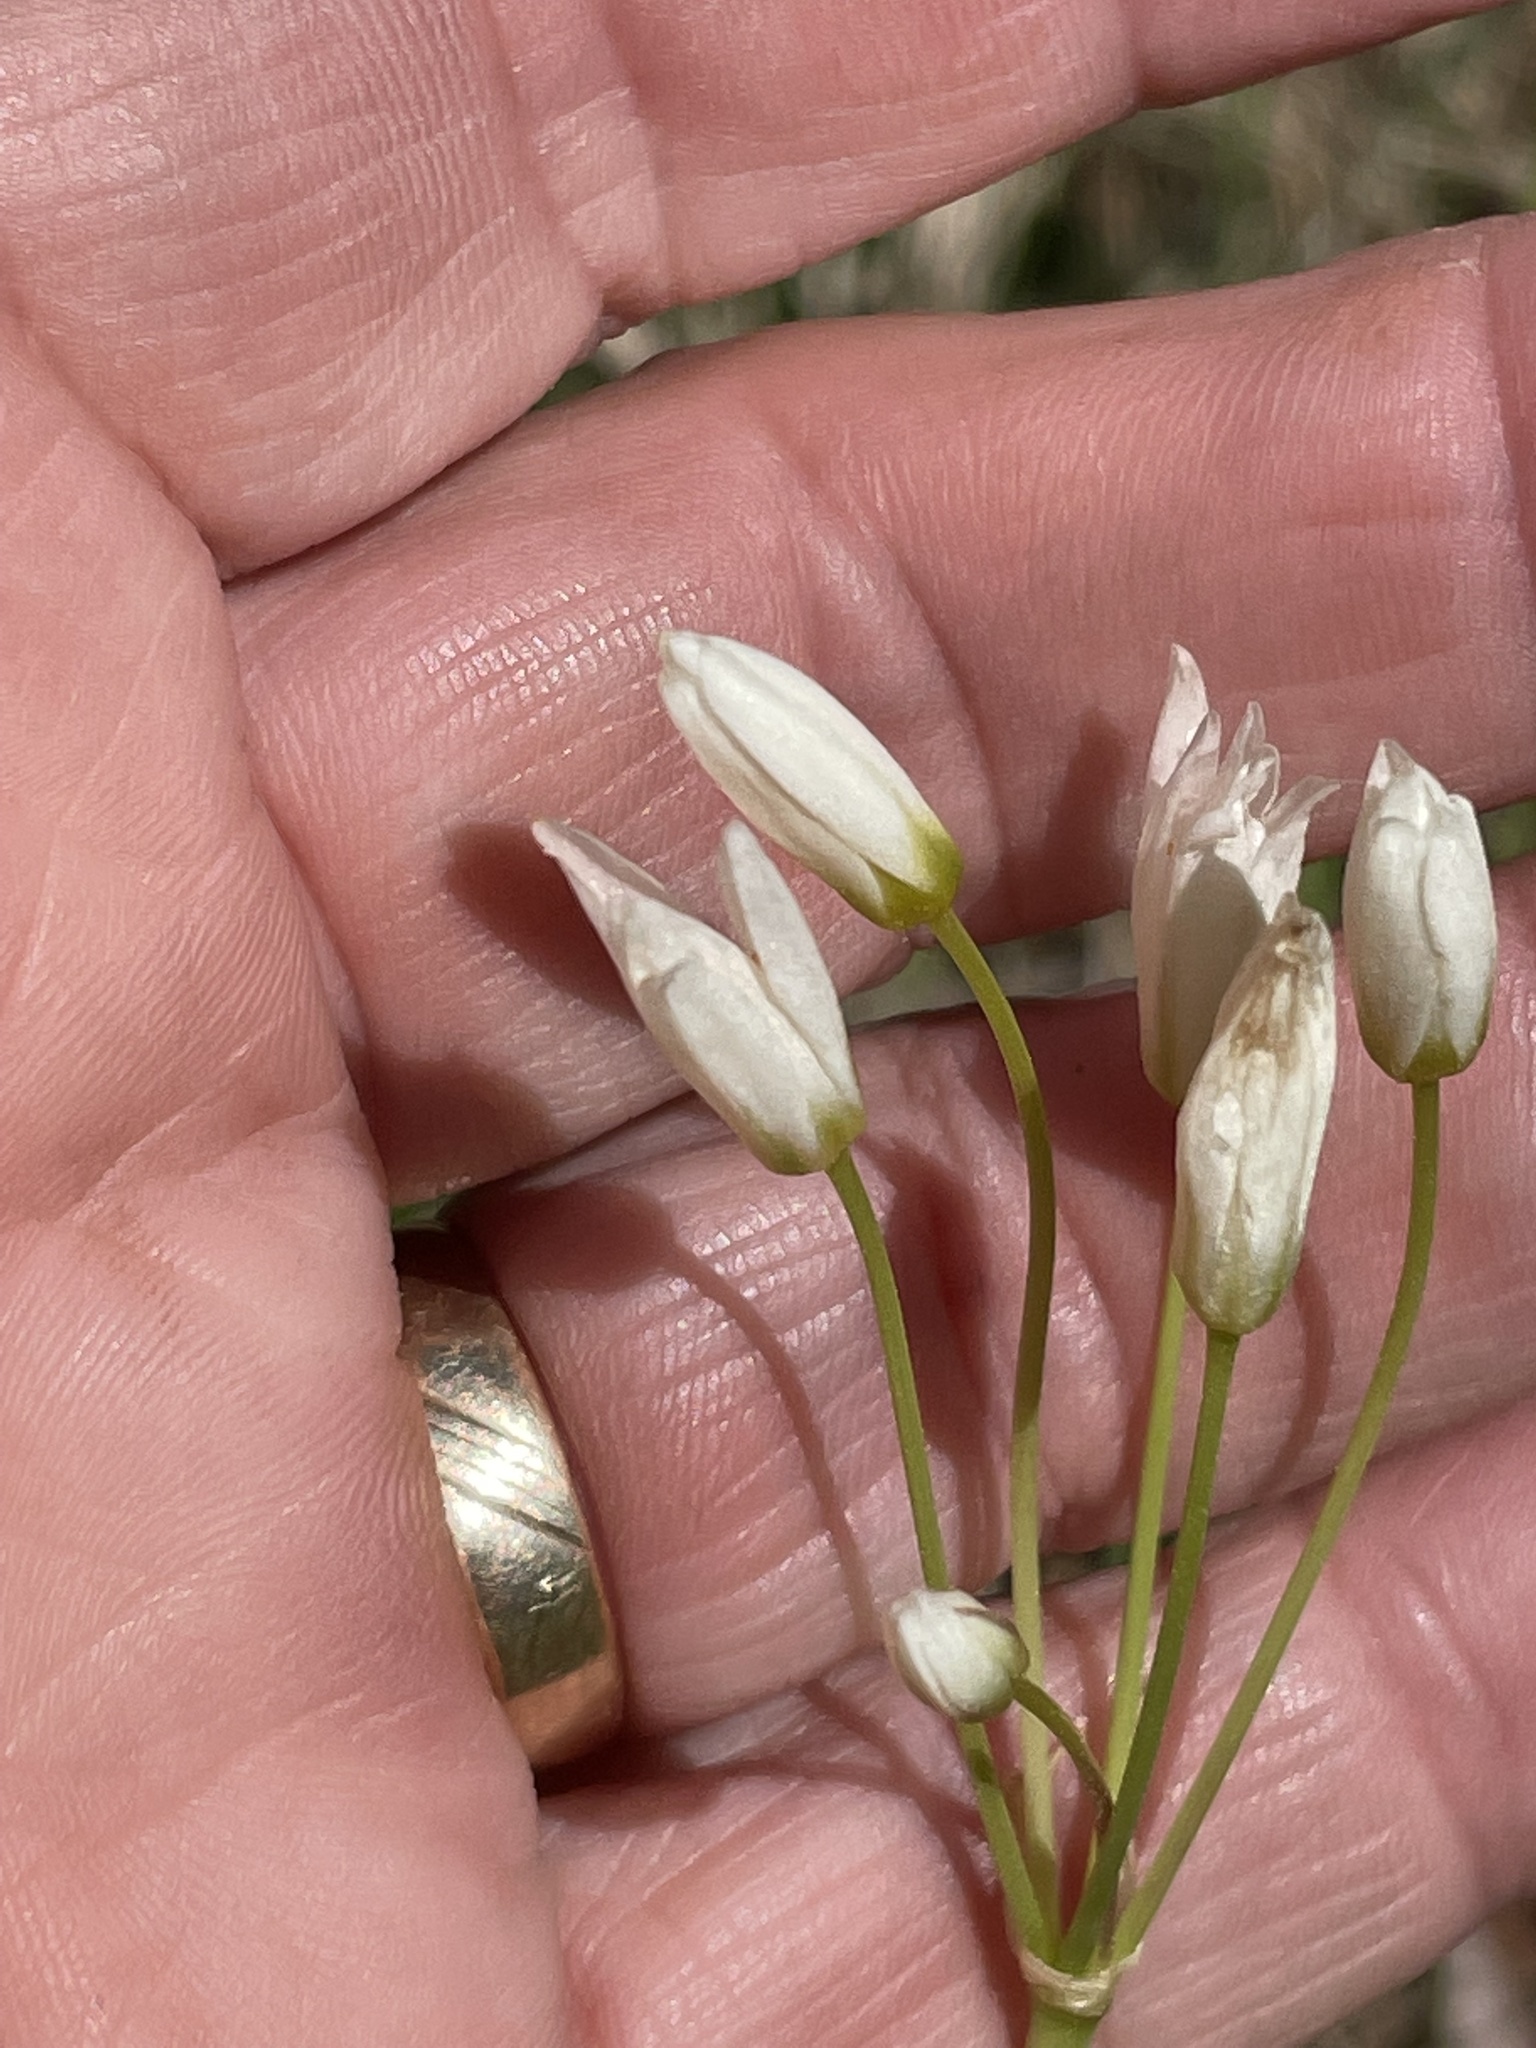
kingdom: Plantae
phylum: Tracheophyta
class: Liliopsida
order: Asparagales
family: Amaryllidaceae
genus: Nothoscordum
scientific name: Nothoscordum bivalve
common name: Crow-poison
